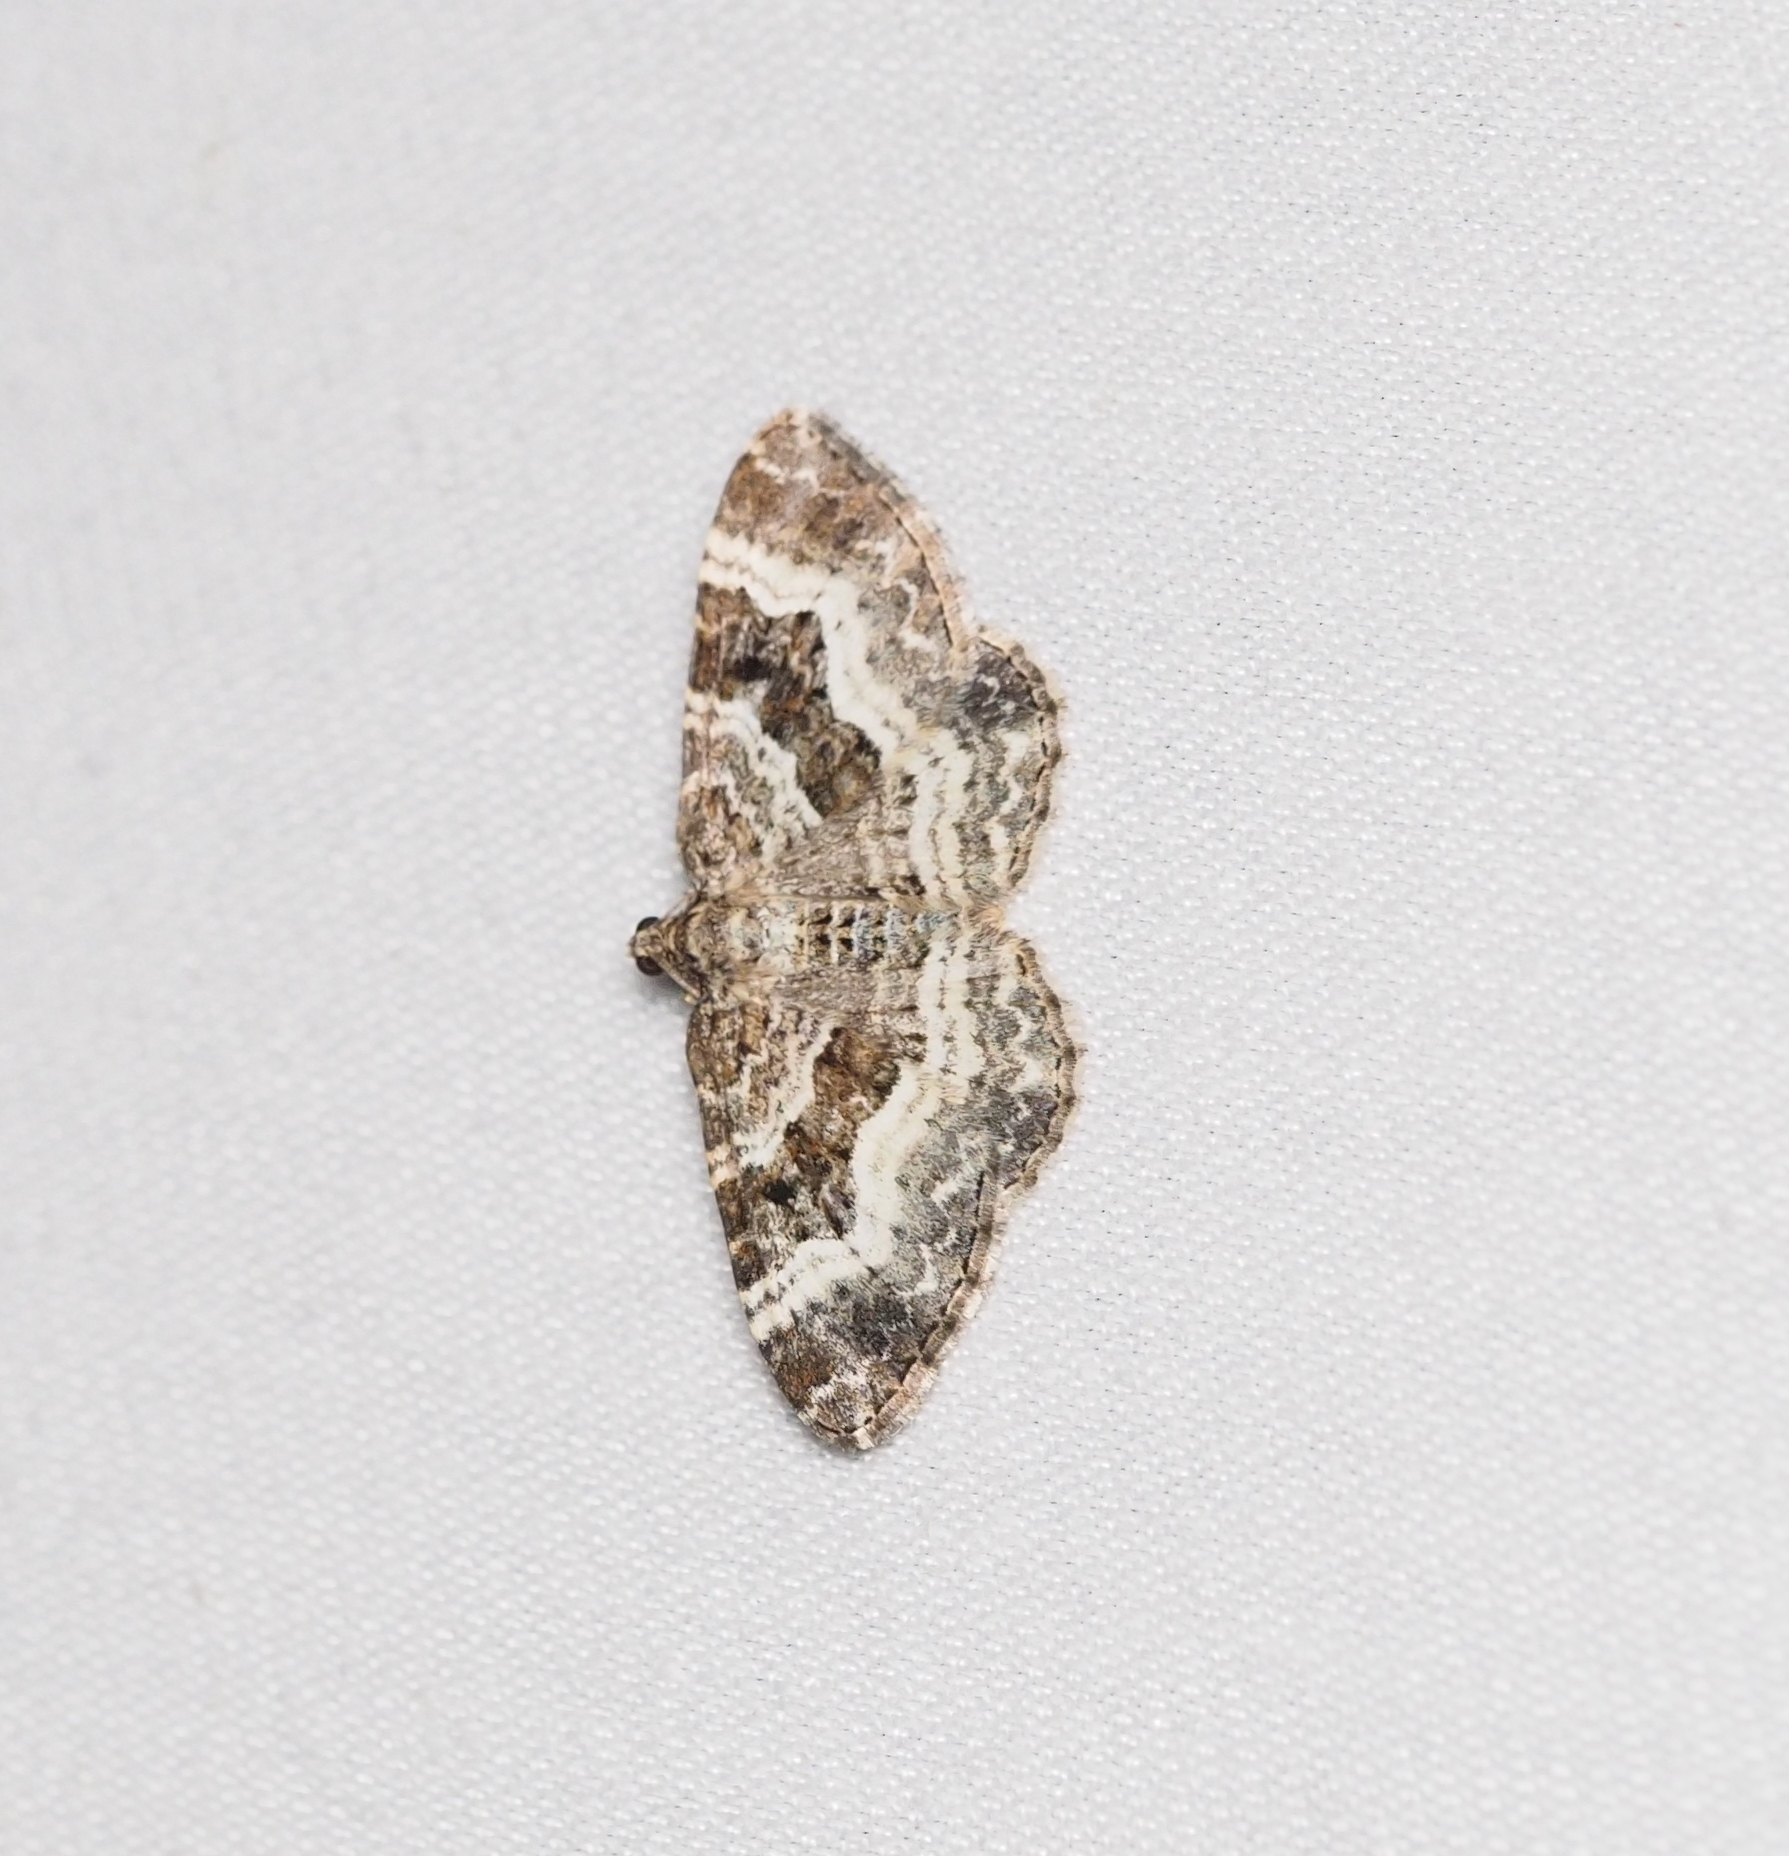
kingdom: Animalia
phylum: Arthropoda
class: Insecta
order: Lepidoptera
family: Geometridae
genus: Epirrhoe
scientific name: Epirrhoe alternata
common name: Common carpet
